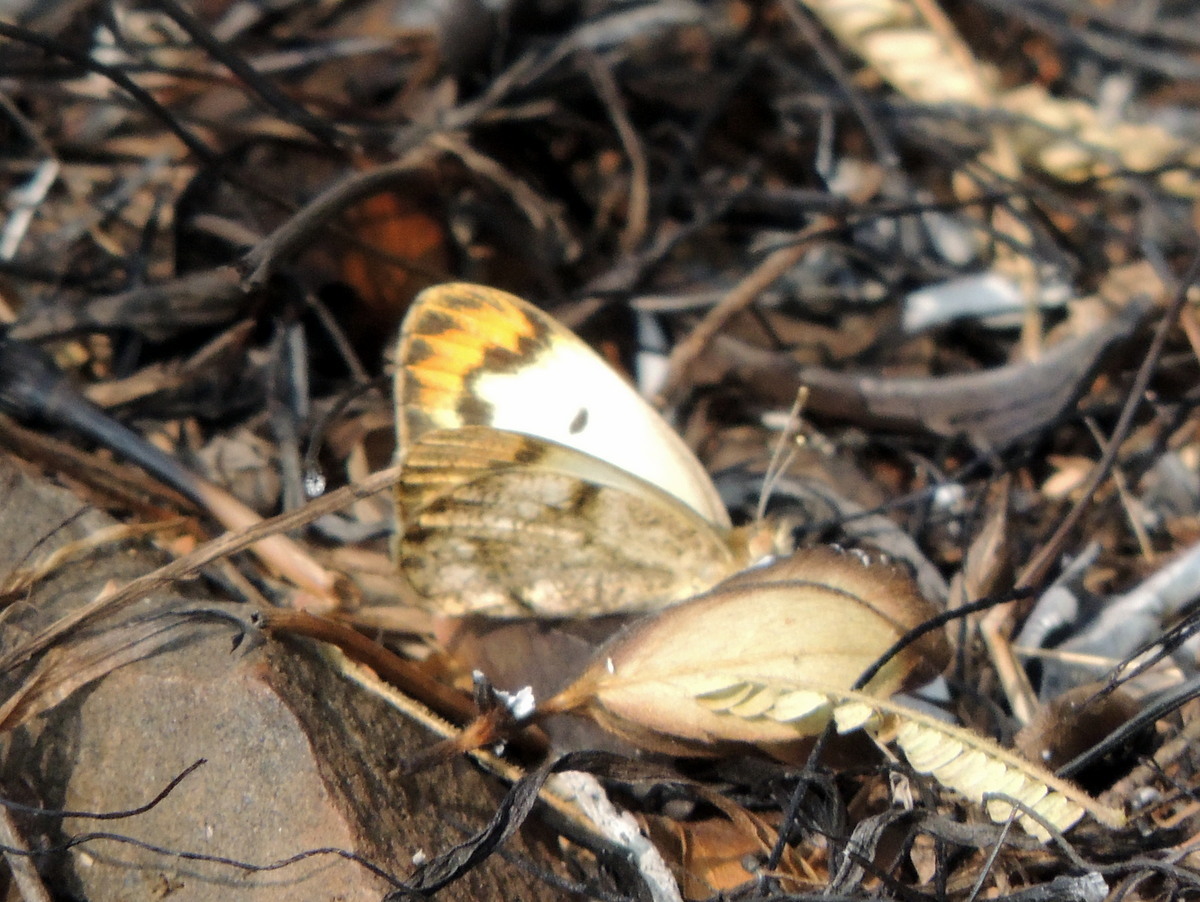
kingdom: Animalia
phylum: Arthropoda
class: Insecta
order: Lepidoptera
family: Pieridae
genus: Colotis
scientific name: Colotis etrida
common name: Little orange tip
